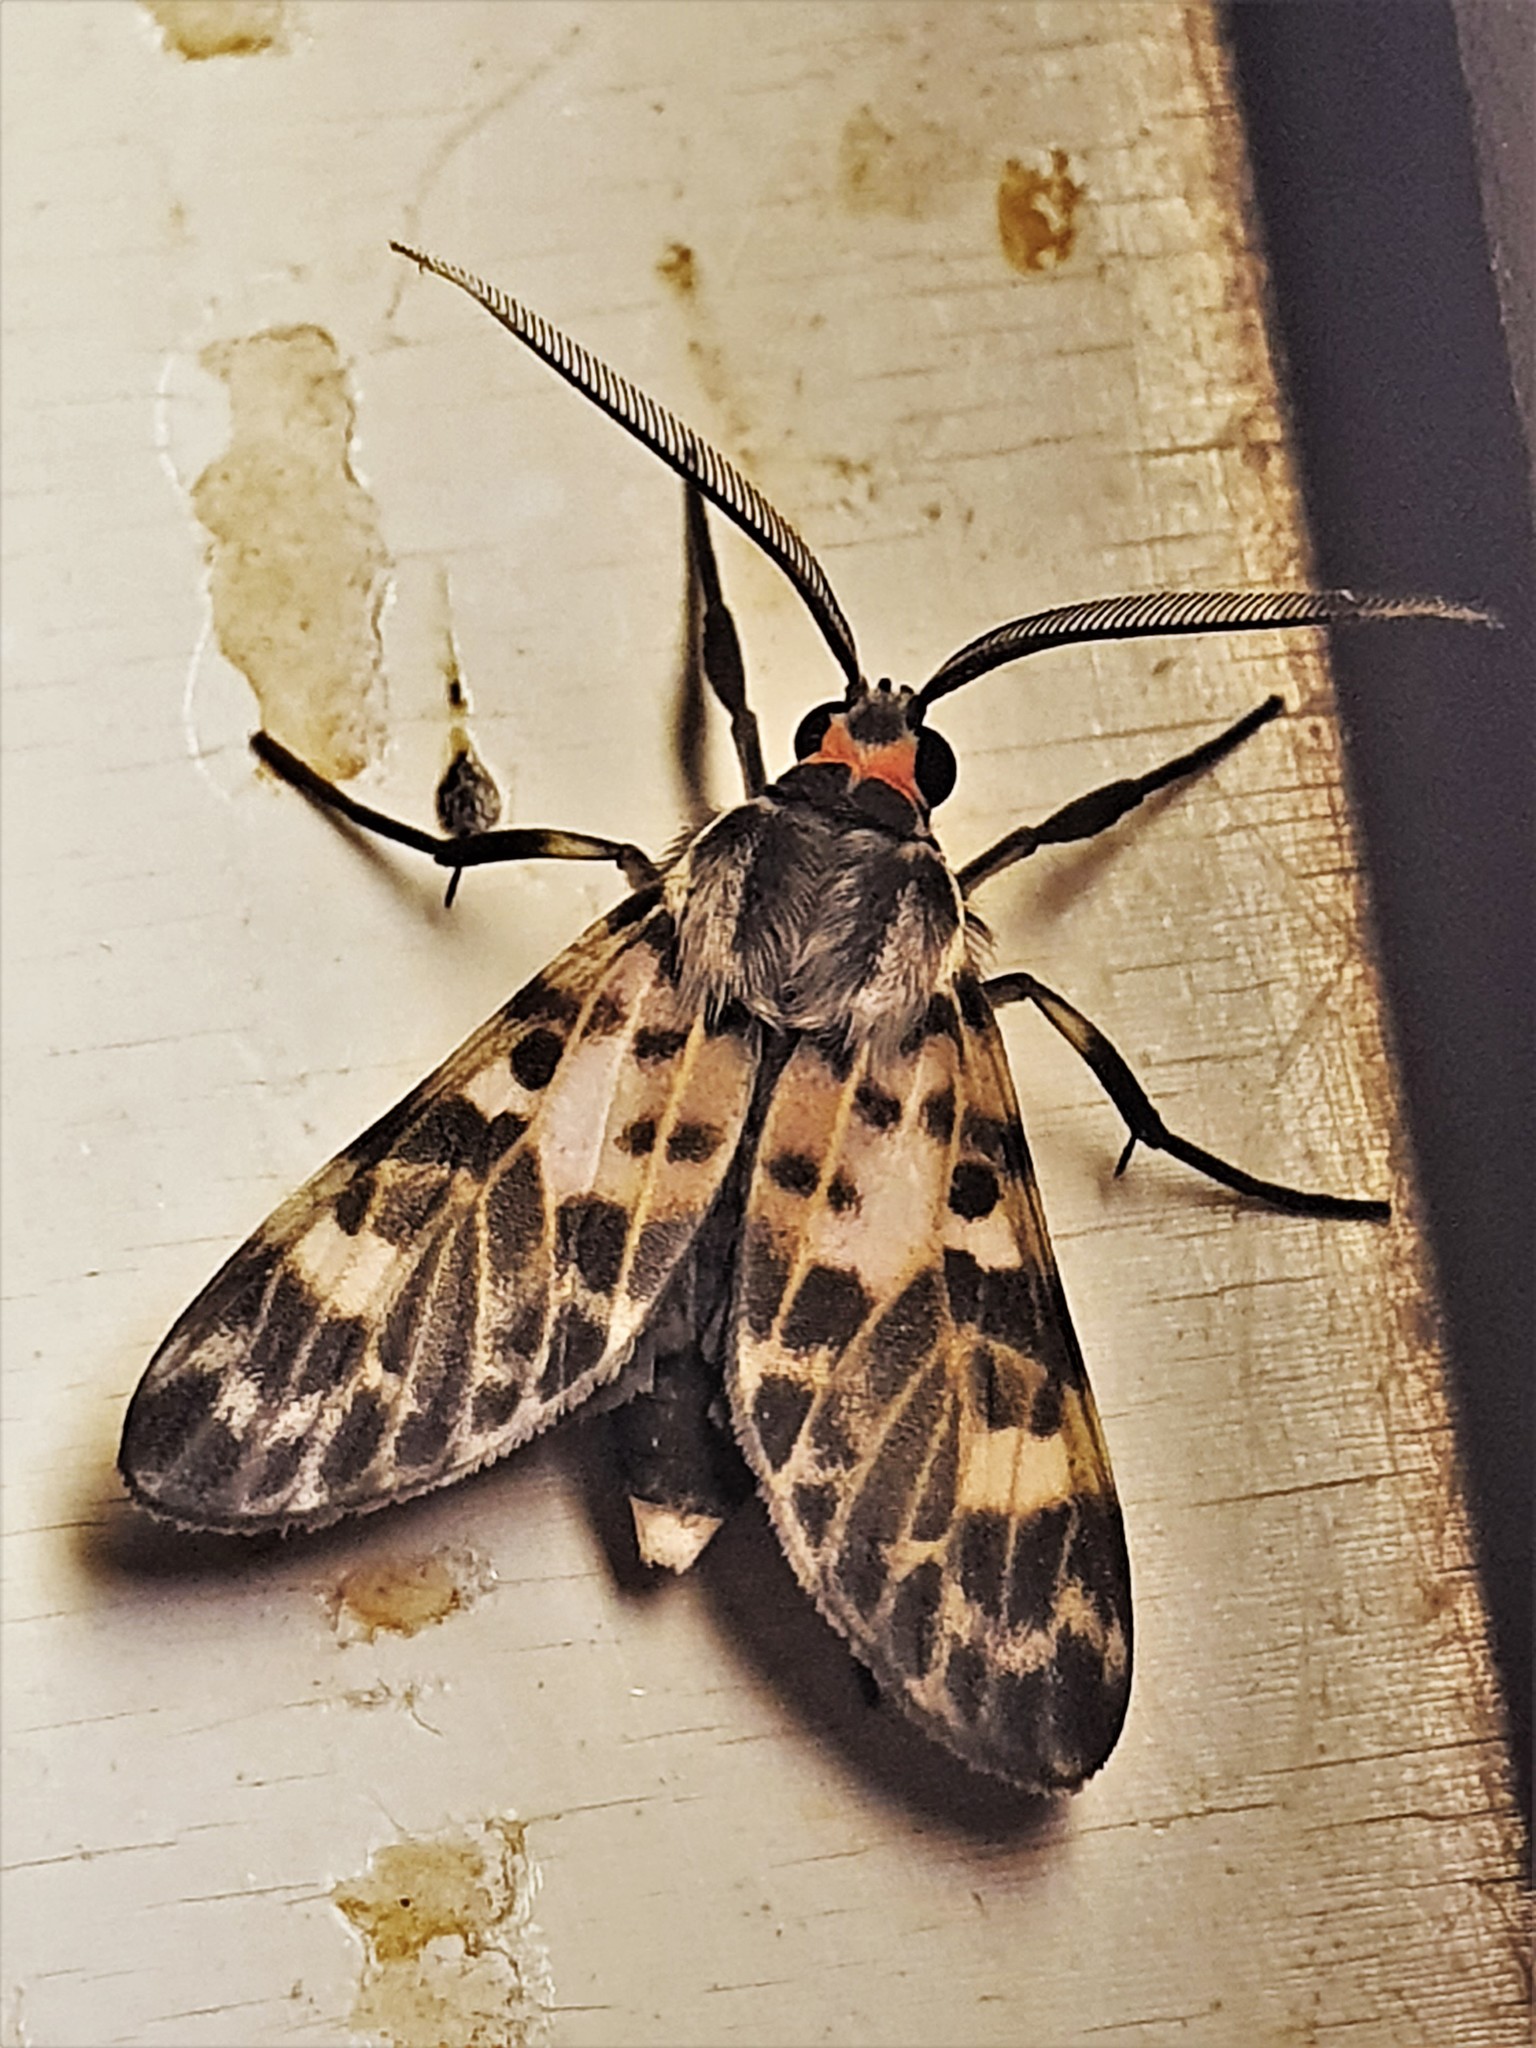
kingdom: Animalia
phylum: Arthropoda
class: Insecta
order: Lepidoptera
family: Erebidae
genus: Heliura
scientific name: Heliura perexcavatum
